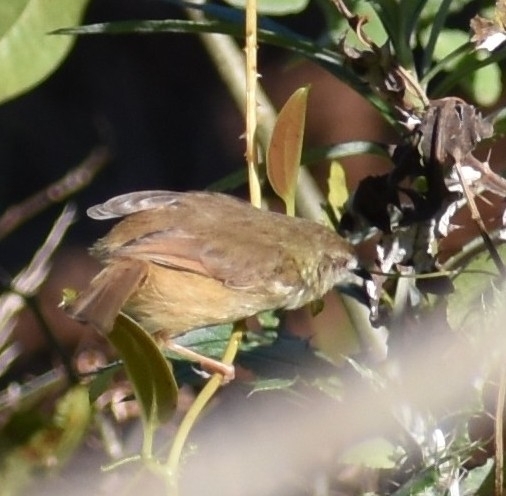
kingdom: Animalia
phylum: Chordata
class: Aves
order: Passeriformes
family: Cisticolidae
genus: Prinia
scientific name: Prinia subflava
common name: Tawny-flanked prinia
